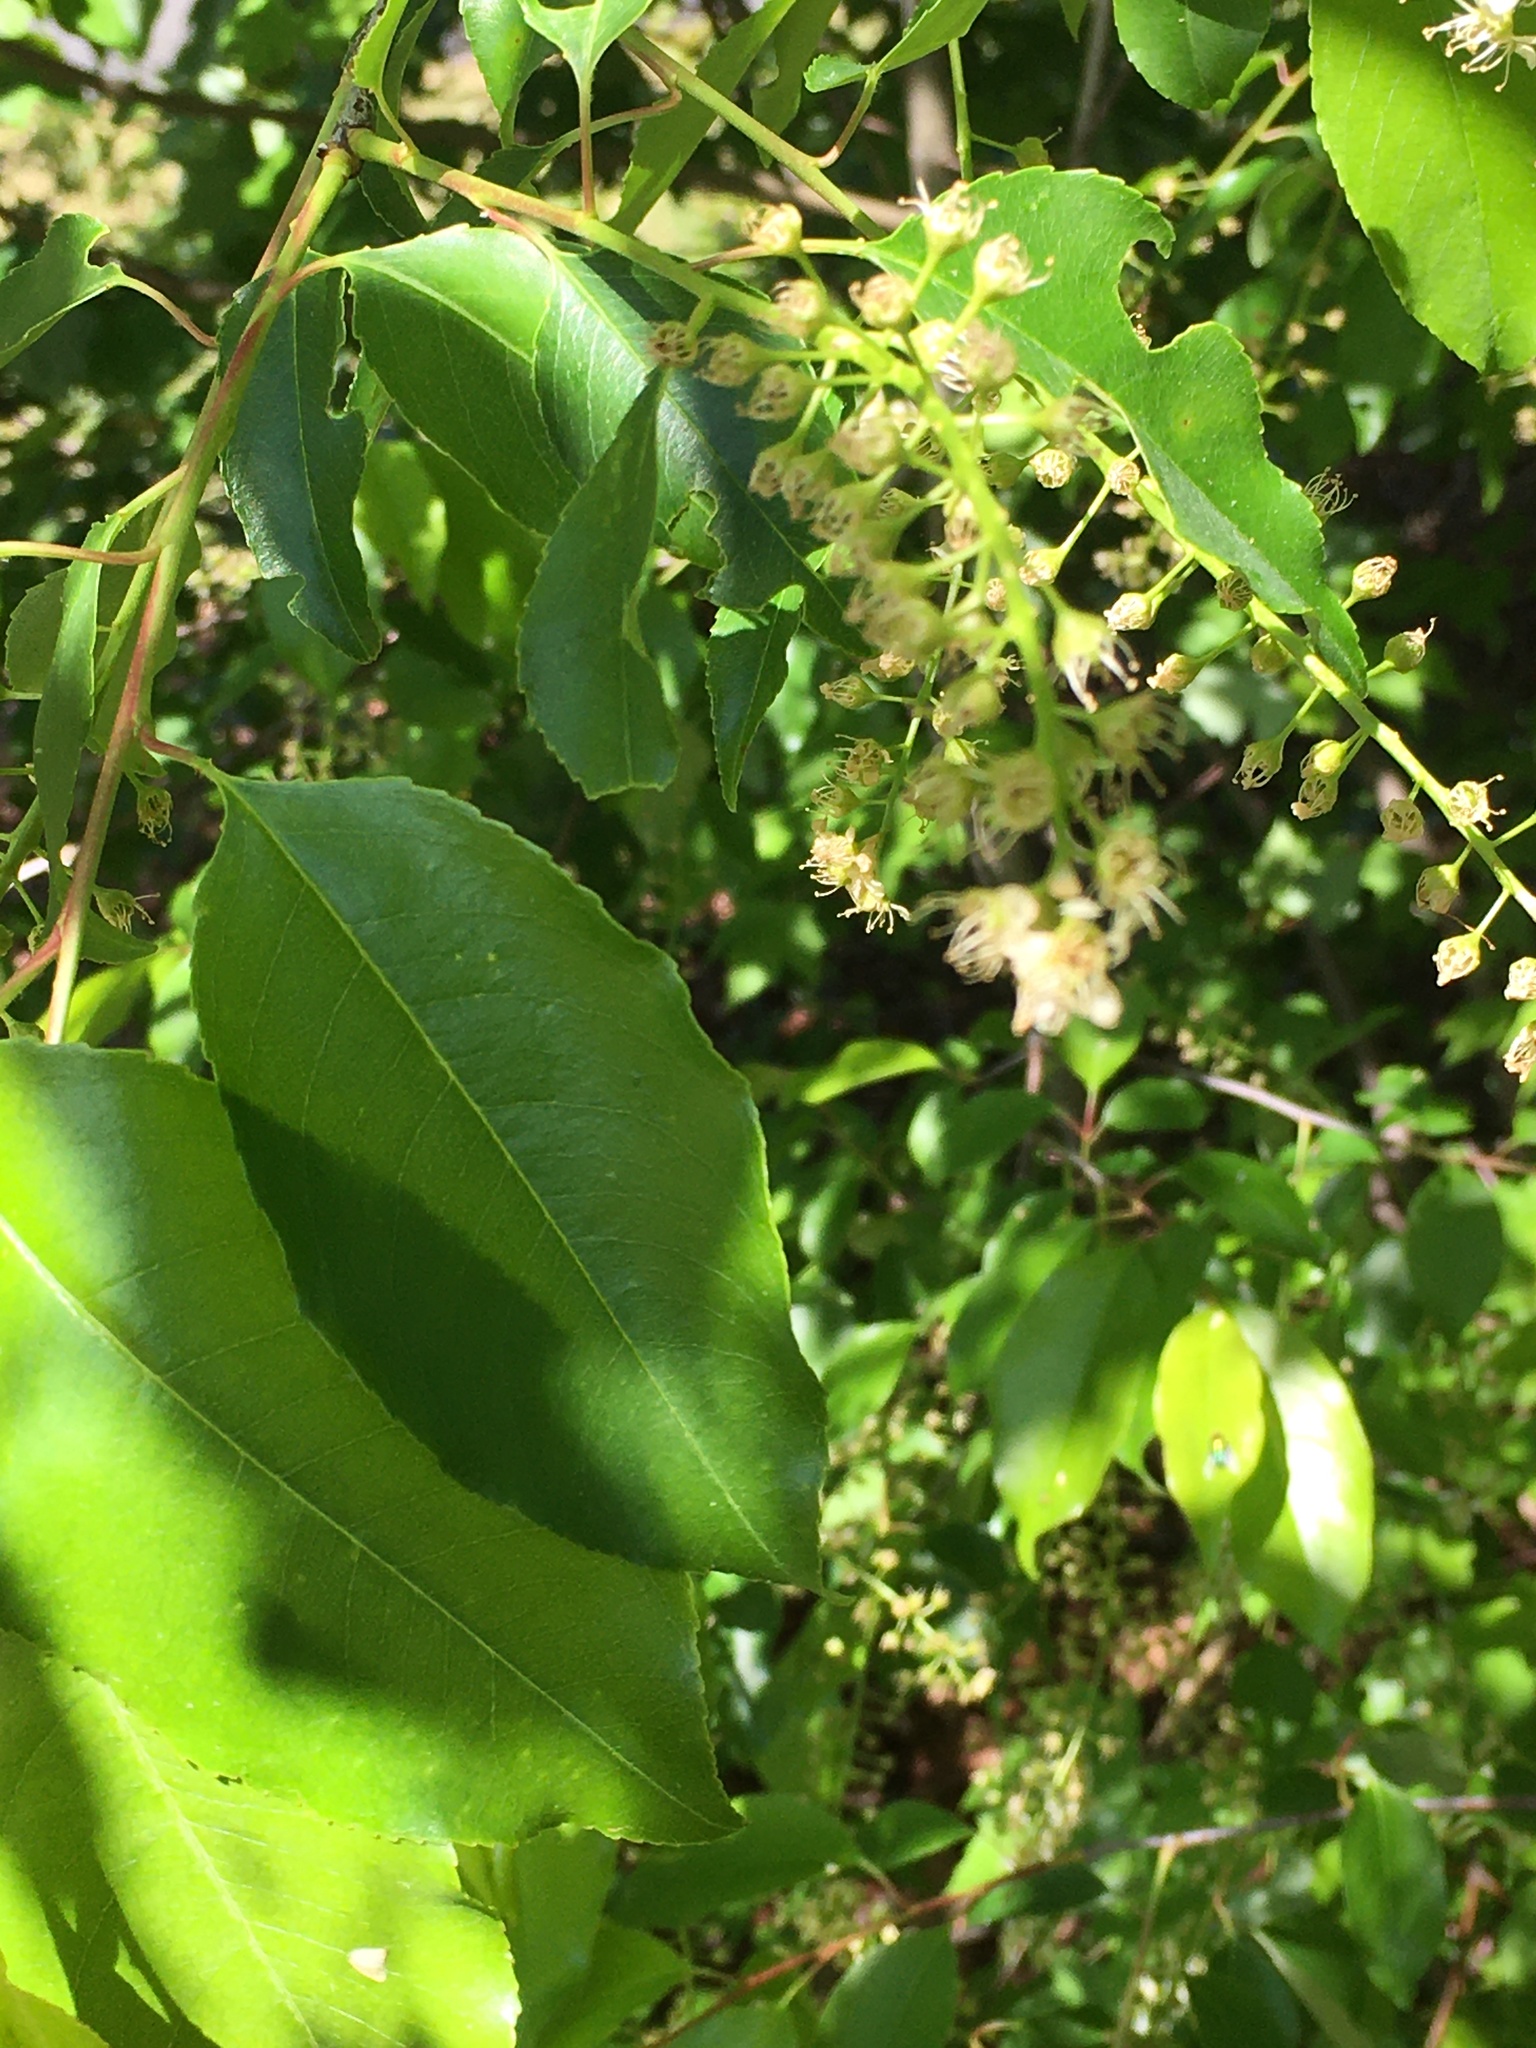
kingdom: Plantae
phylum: Tracheophyta
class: Magnoliopsida
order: Rosales
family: Rosaceae
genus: Prunus
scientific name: Prunus serotina
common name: Black cherry
